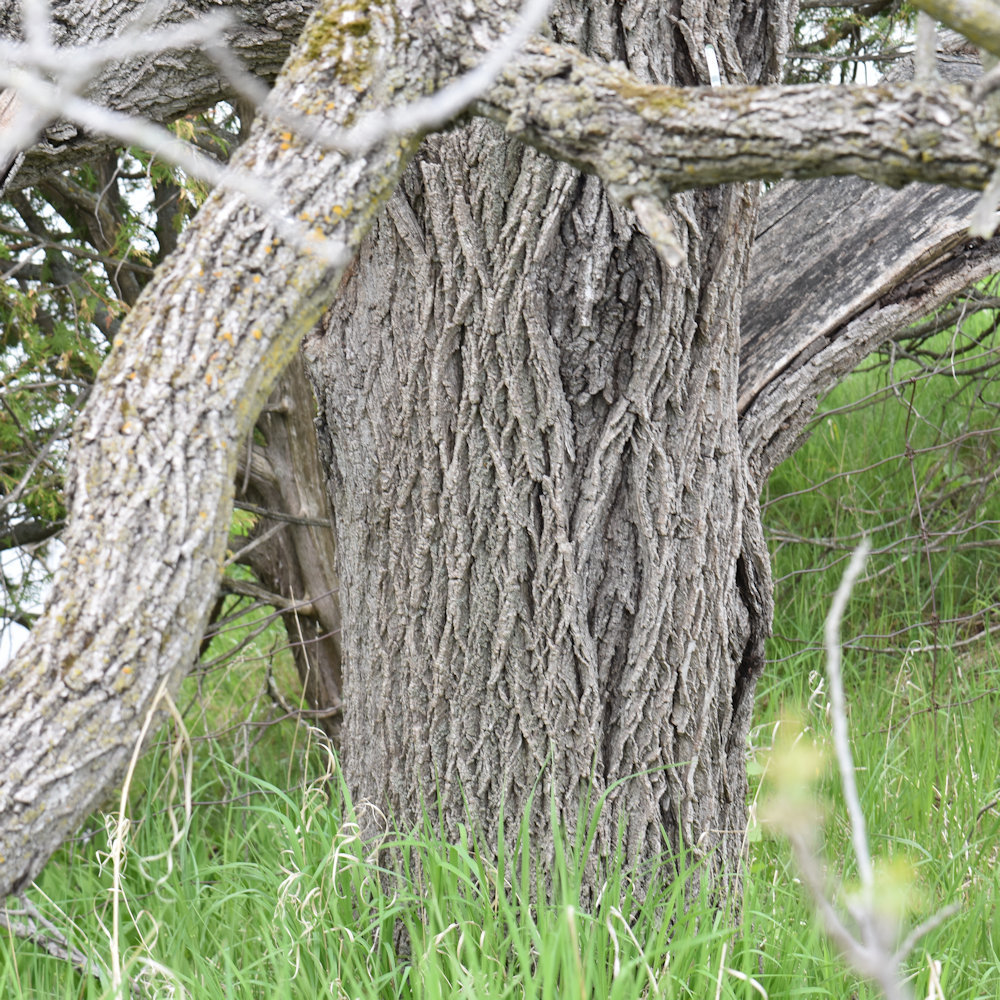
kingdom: Plantae
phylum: Tracheophyta
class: Magnoliopsida
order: Fagales
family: Juglandaceae
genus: Juglans
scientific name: Juglans nigra
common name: Black walnut
